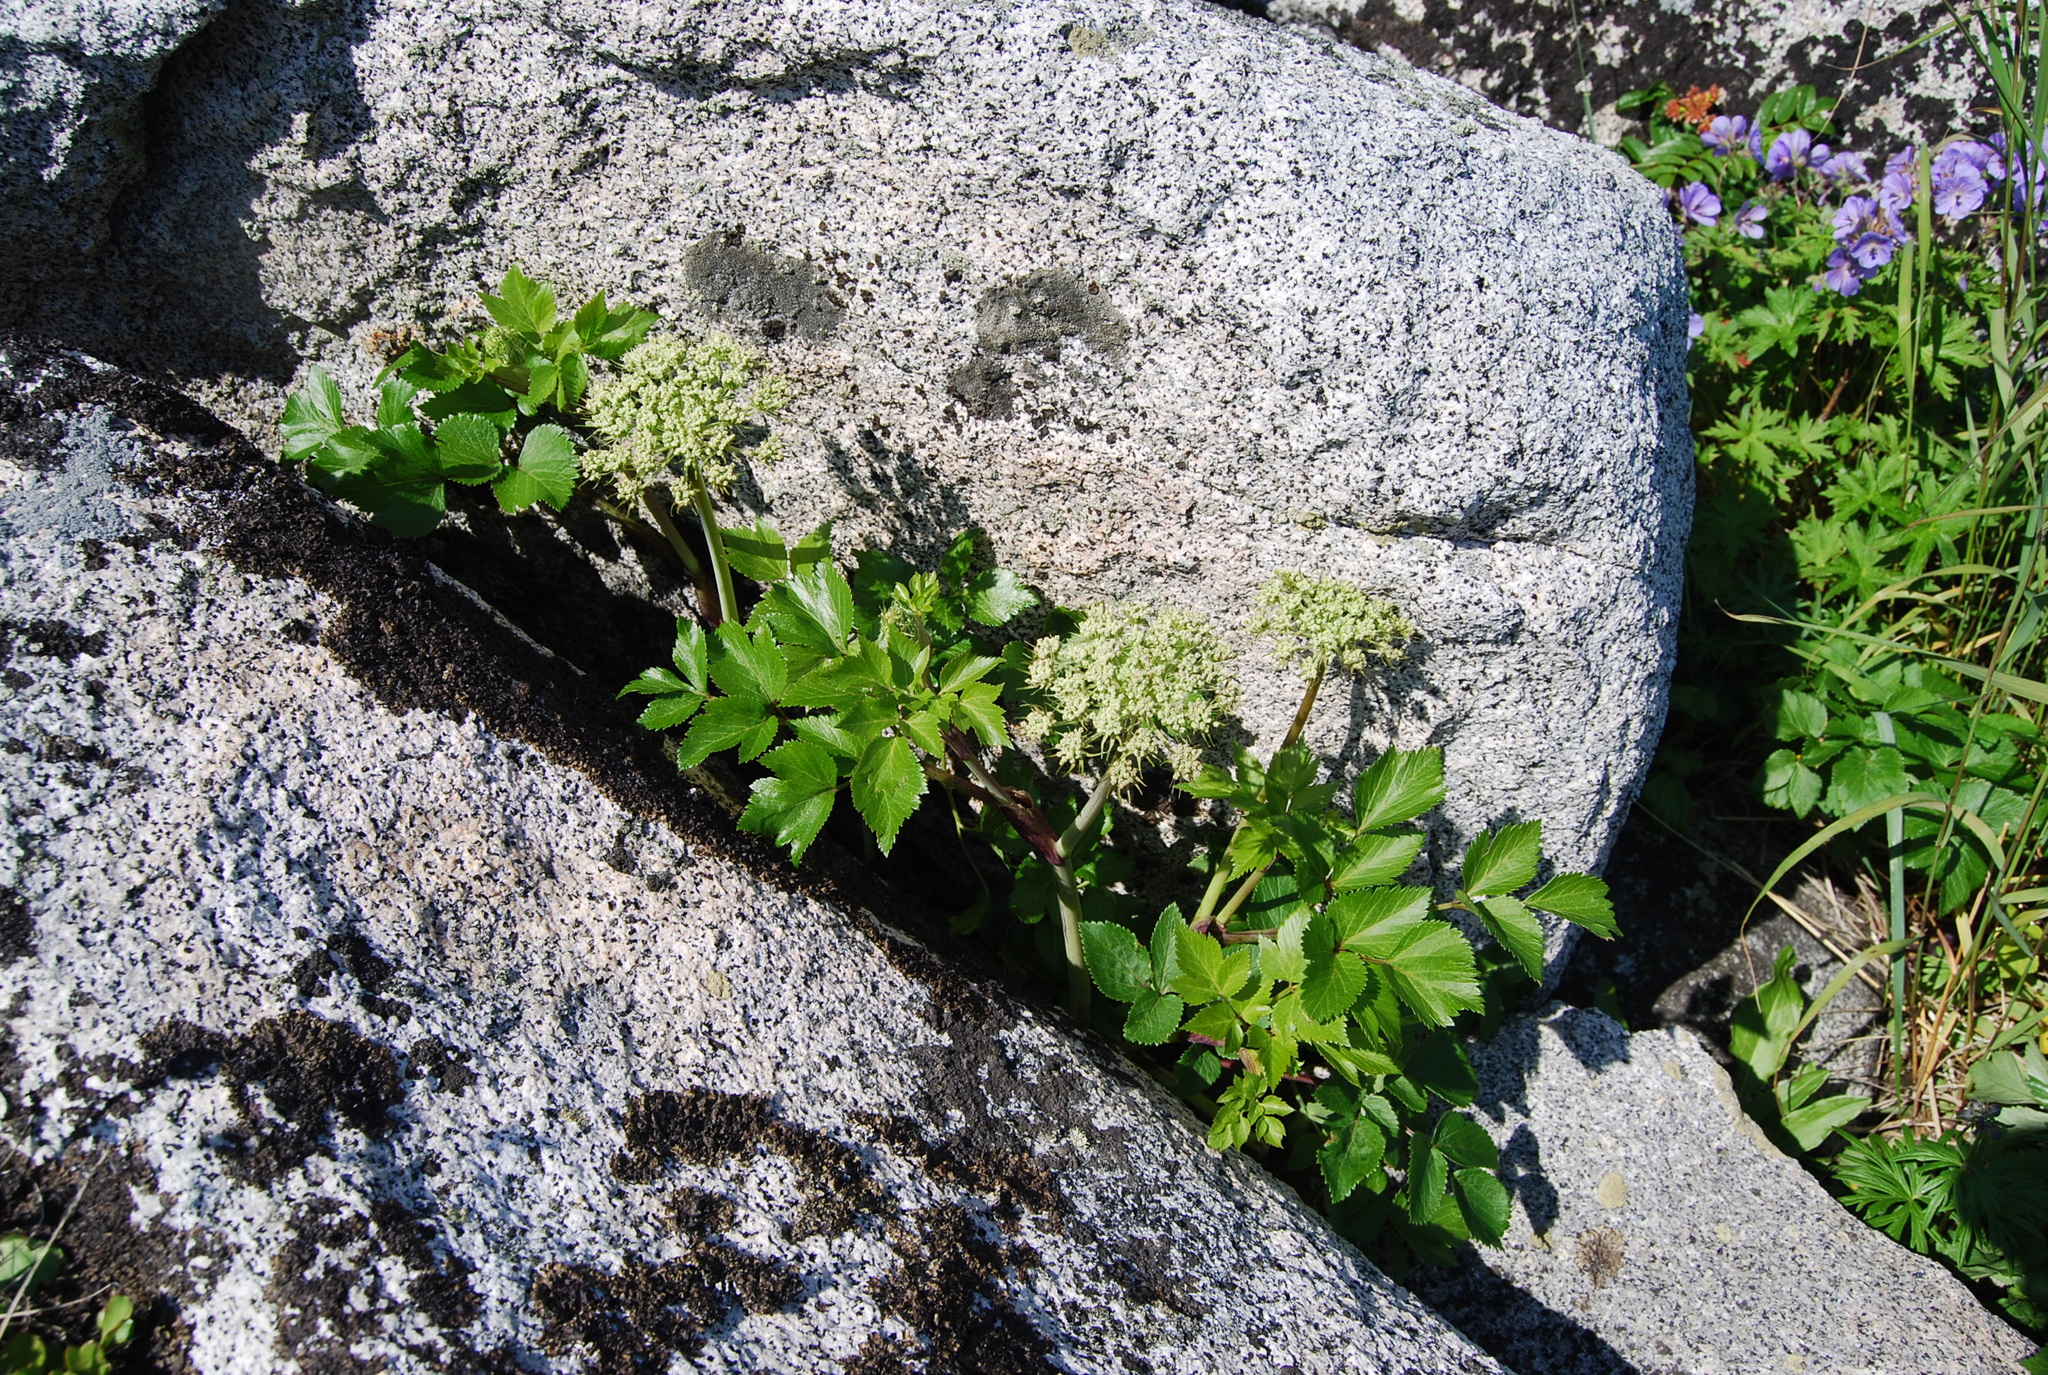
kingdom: Plantae
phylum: Tracheophyta
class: Magnoliopsida
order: Apiales
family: Apiaceae
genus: Angelica
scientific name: Angelica gmelinii
